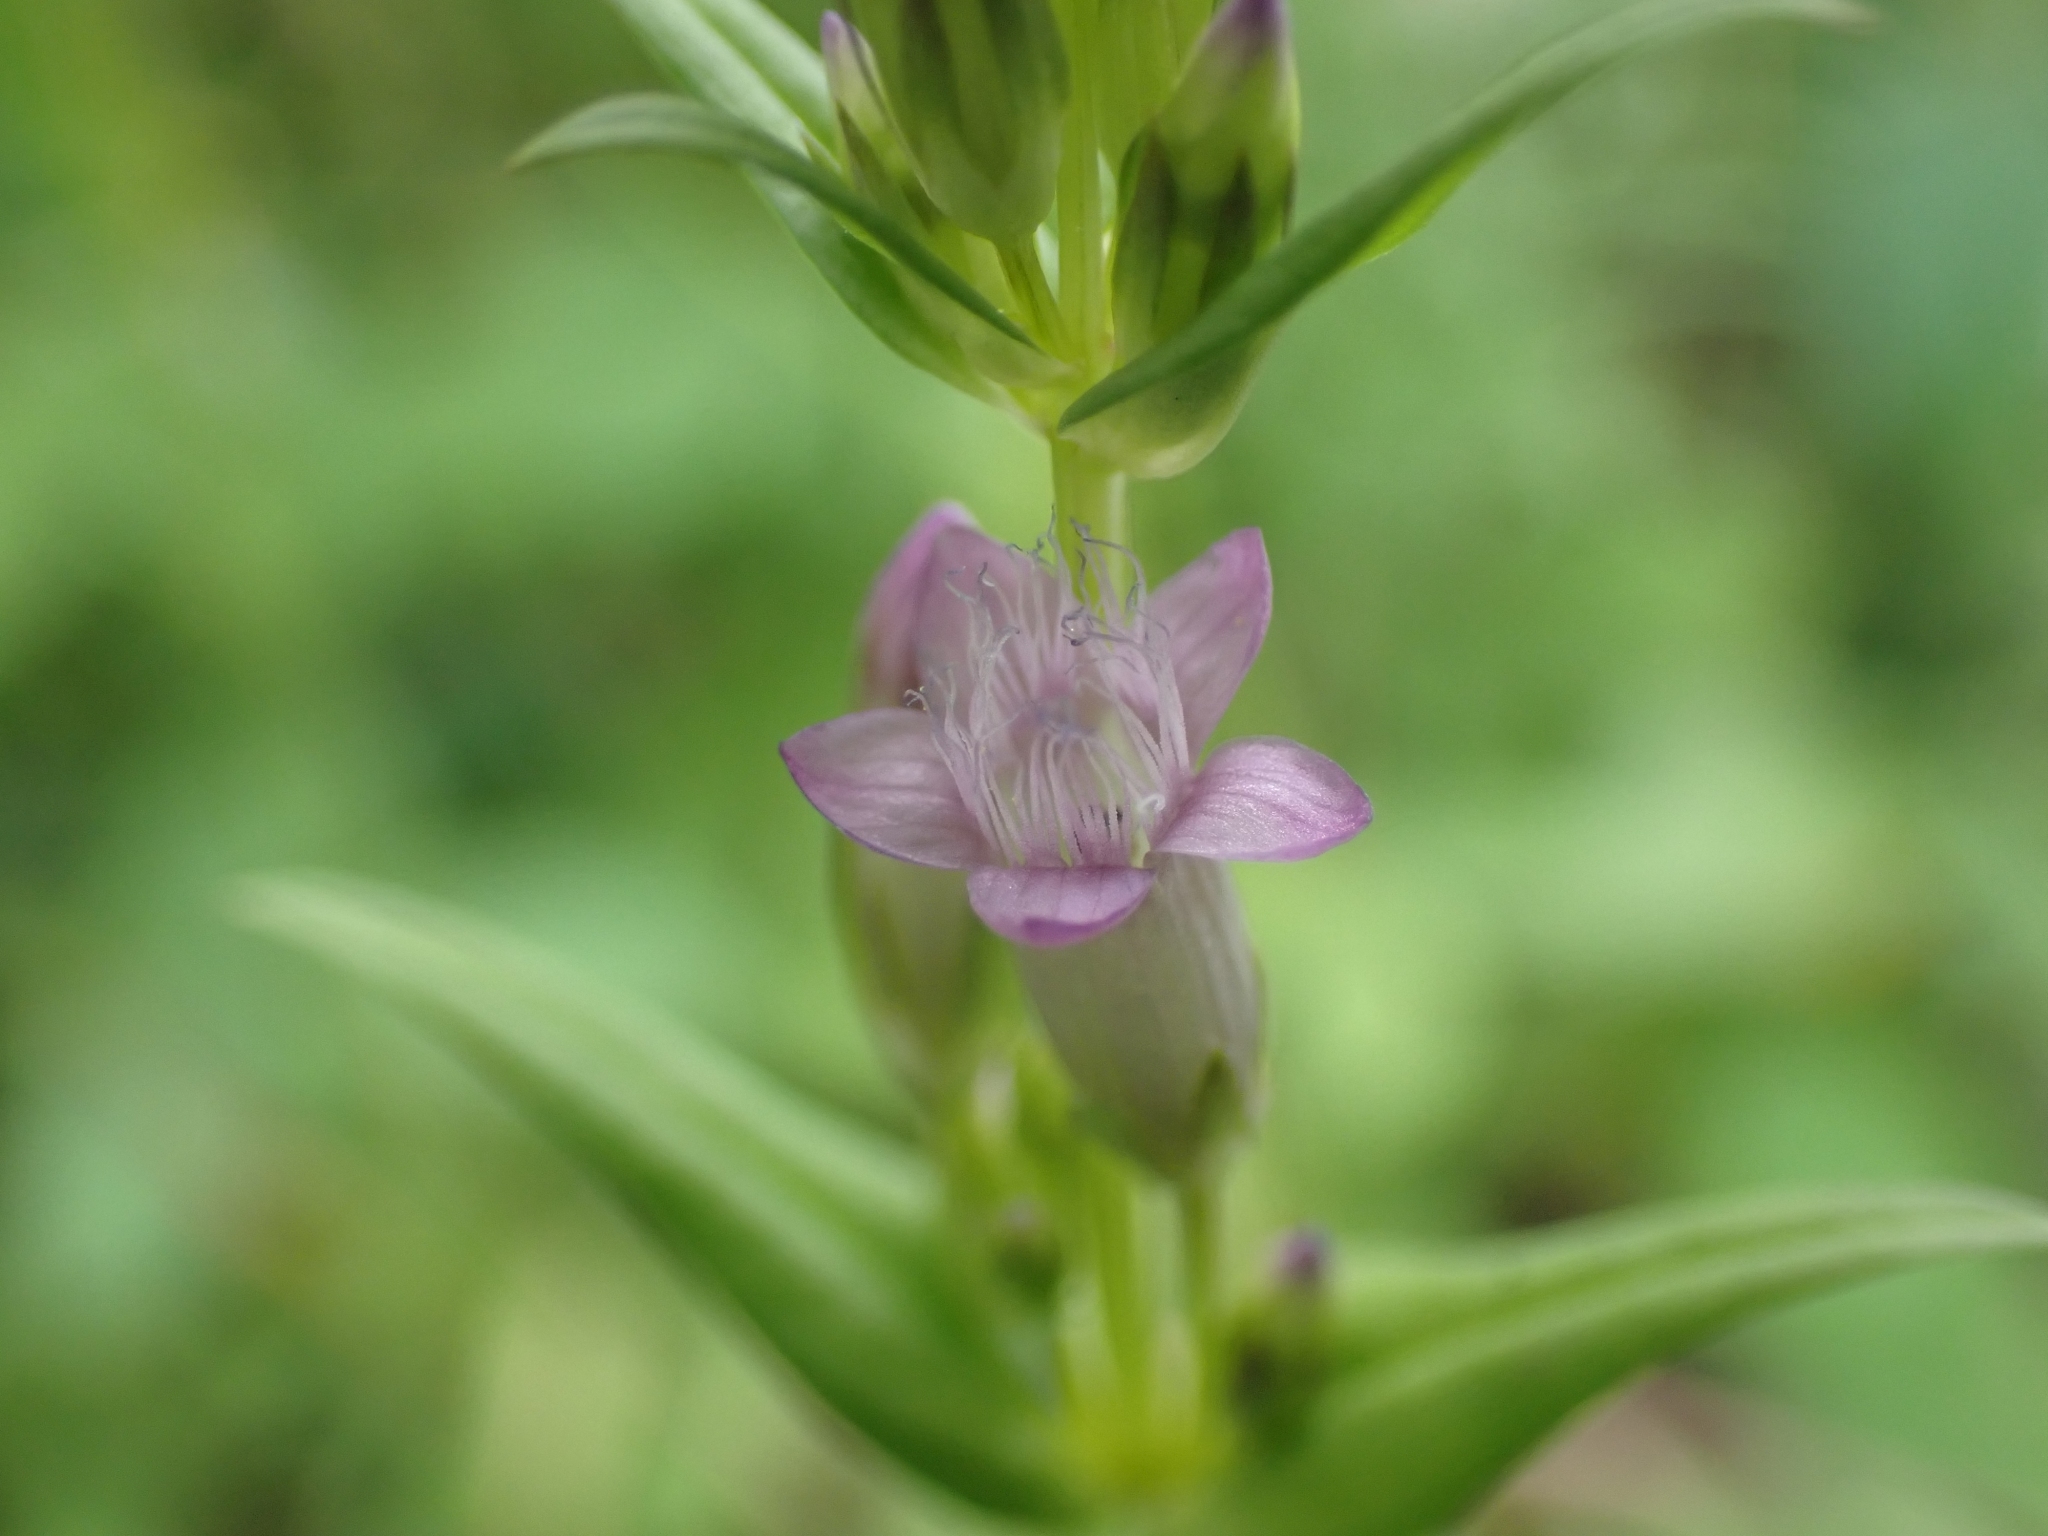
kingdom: Plantae
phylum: Tracheophyta
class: Magnoliopsida
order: Gentianales
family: Gentianaceae
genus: Gentianella
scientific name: Gentianella amarella
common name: Autumn gentian
